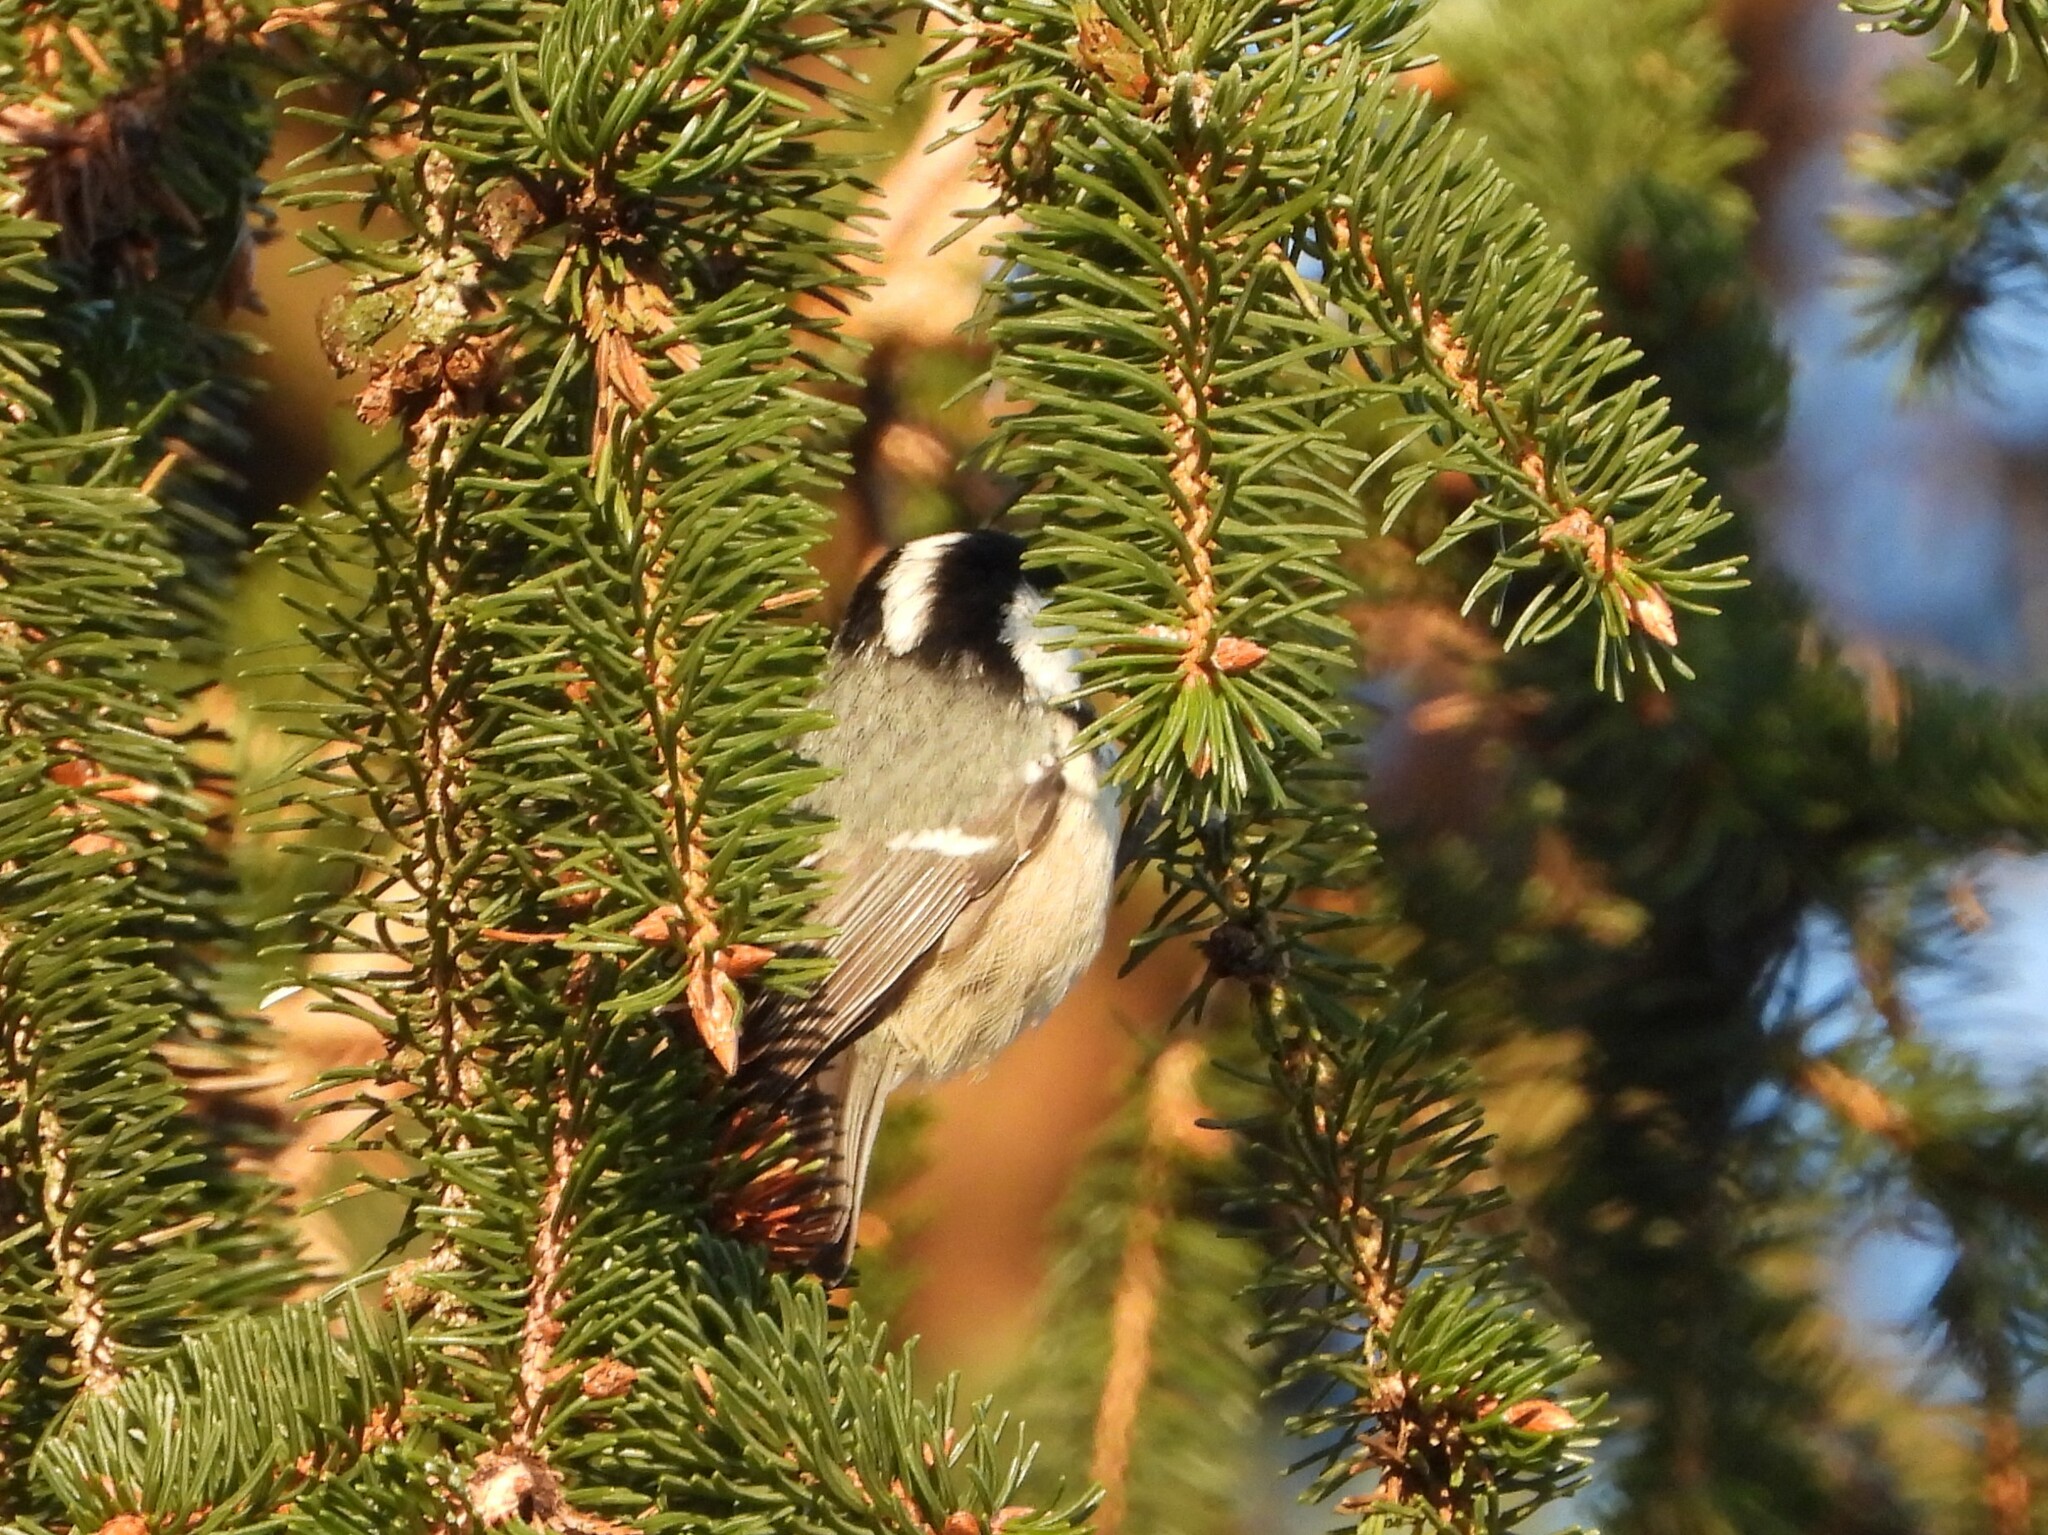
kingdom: Animalia
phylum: Chordata
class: Aves
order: Passeriformes
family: Paridae
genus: Periparus
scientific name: Periparus ater
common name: Coal tit
